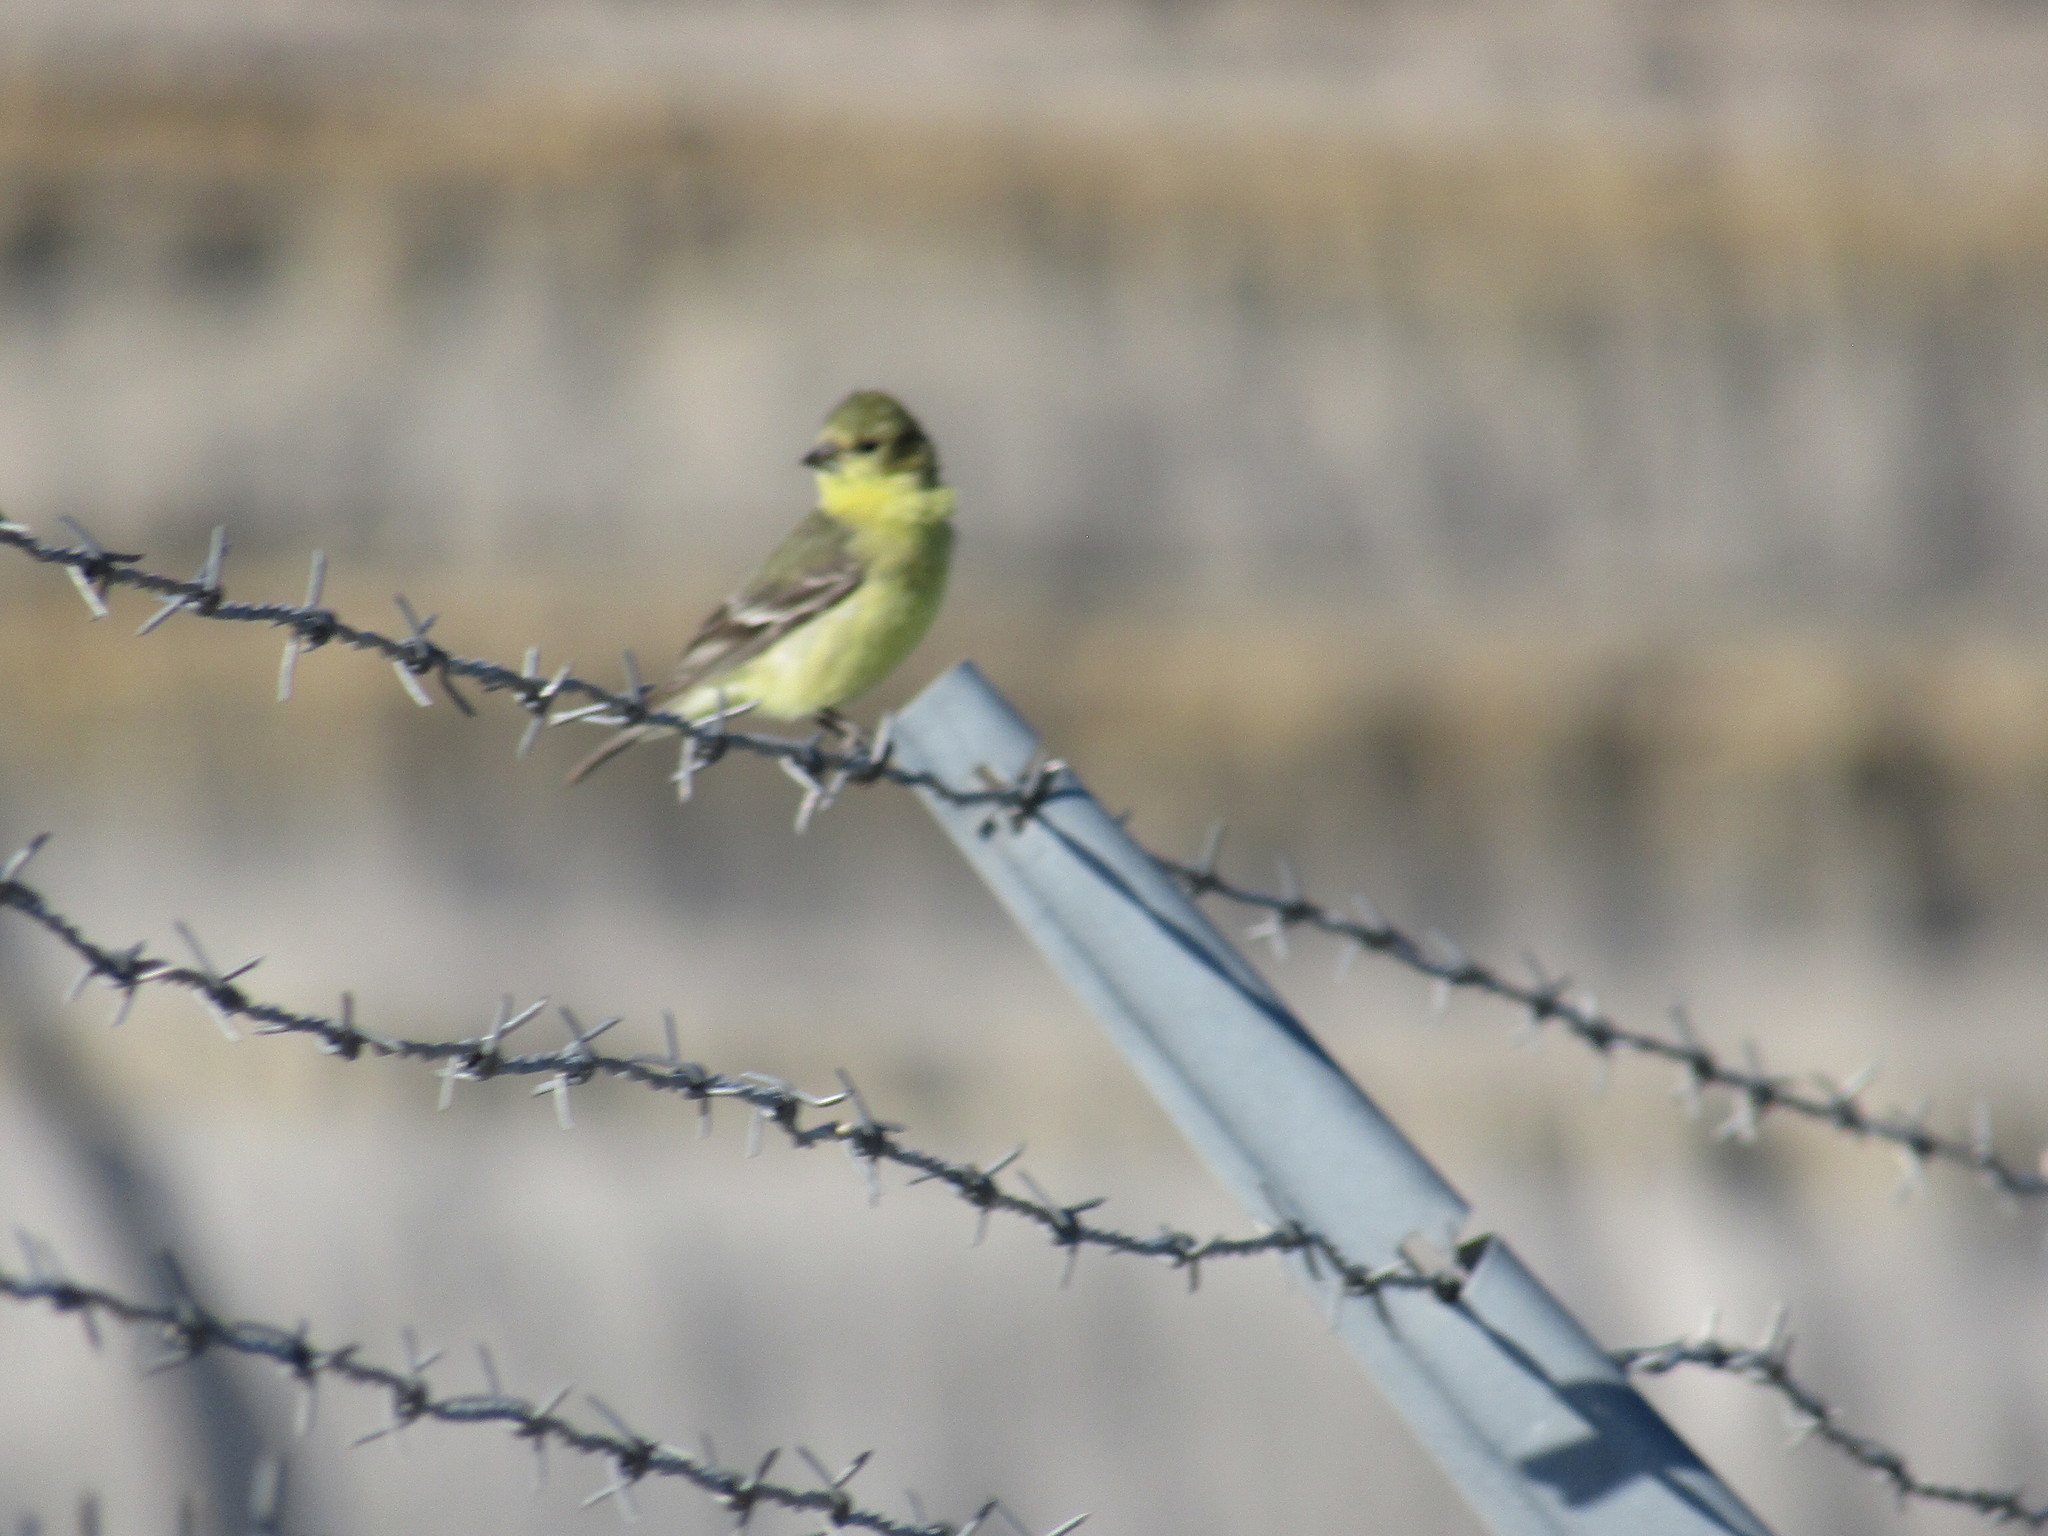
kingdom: Animalia
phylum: Chordata
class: Aves
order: Passeriformes
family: Fringillidae
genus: Spinus
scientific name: Spinus psaltria
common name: Lesser goldfinch
